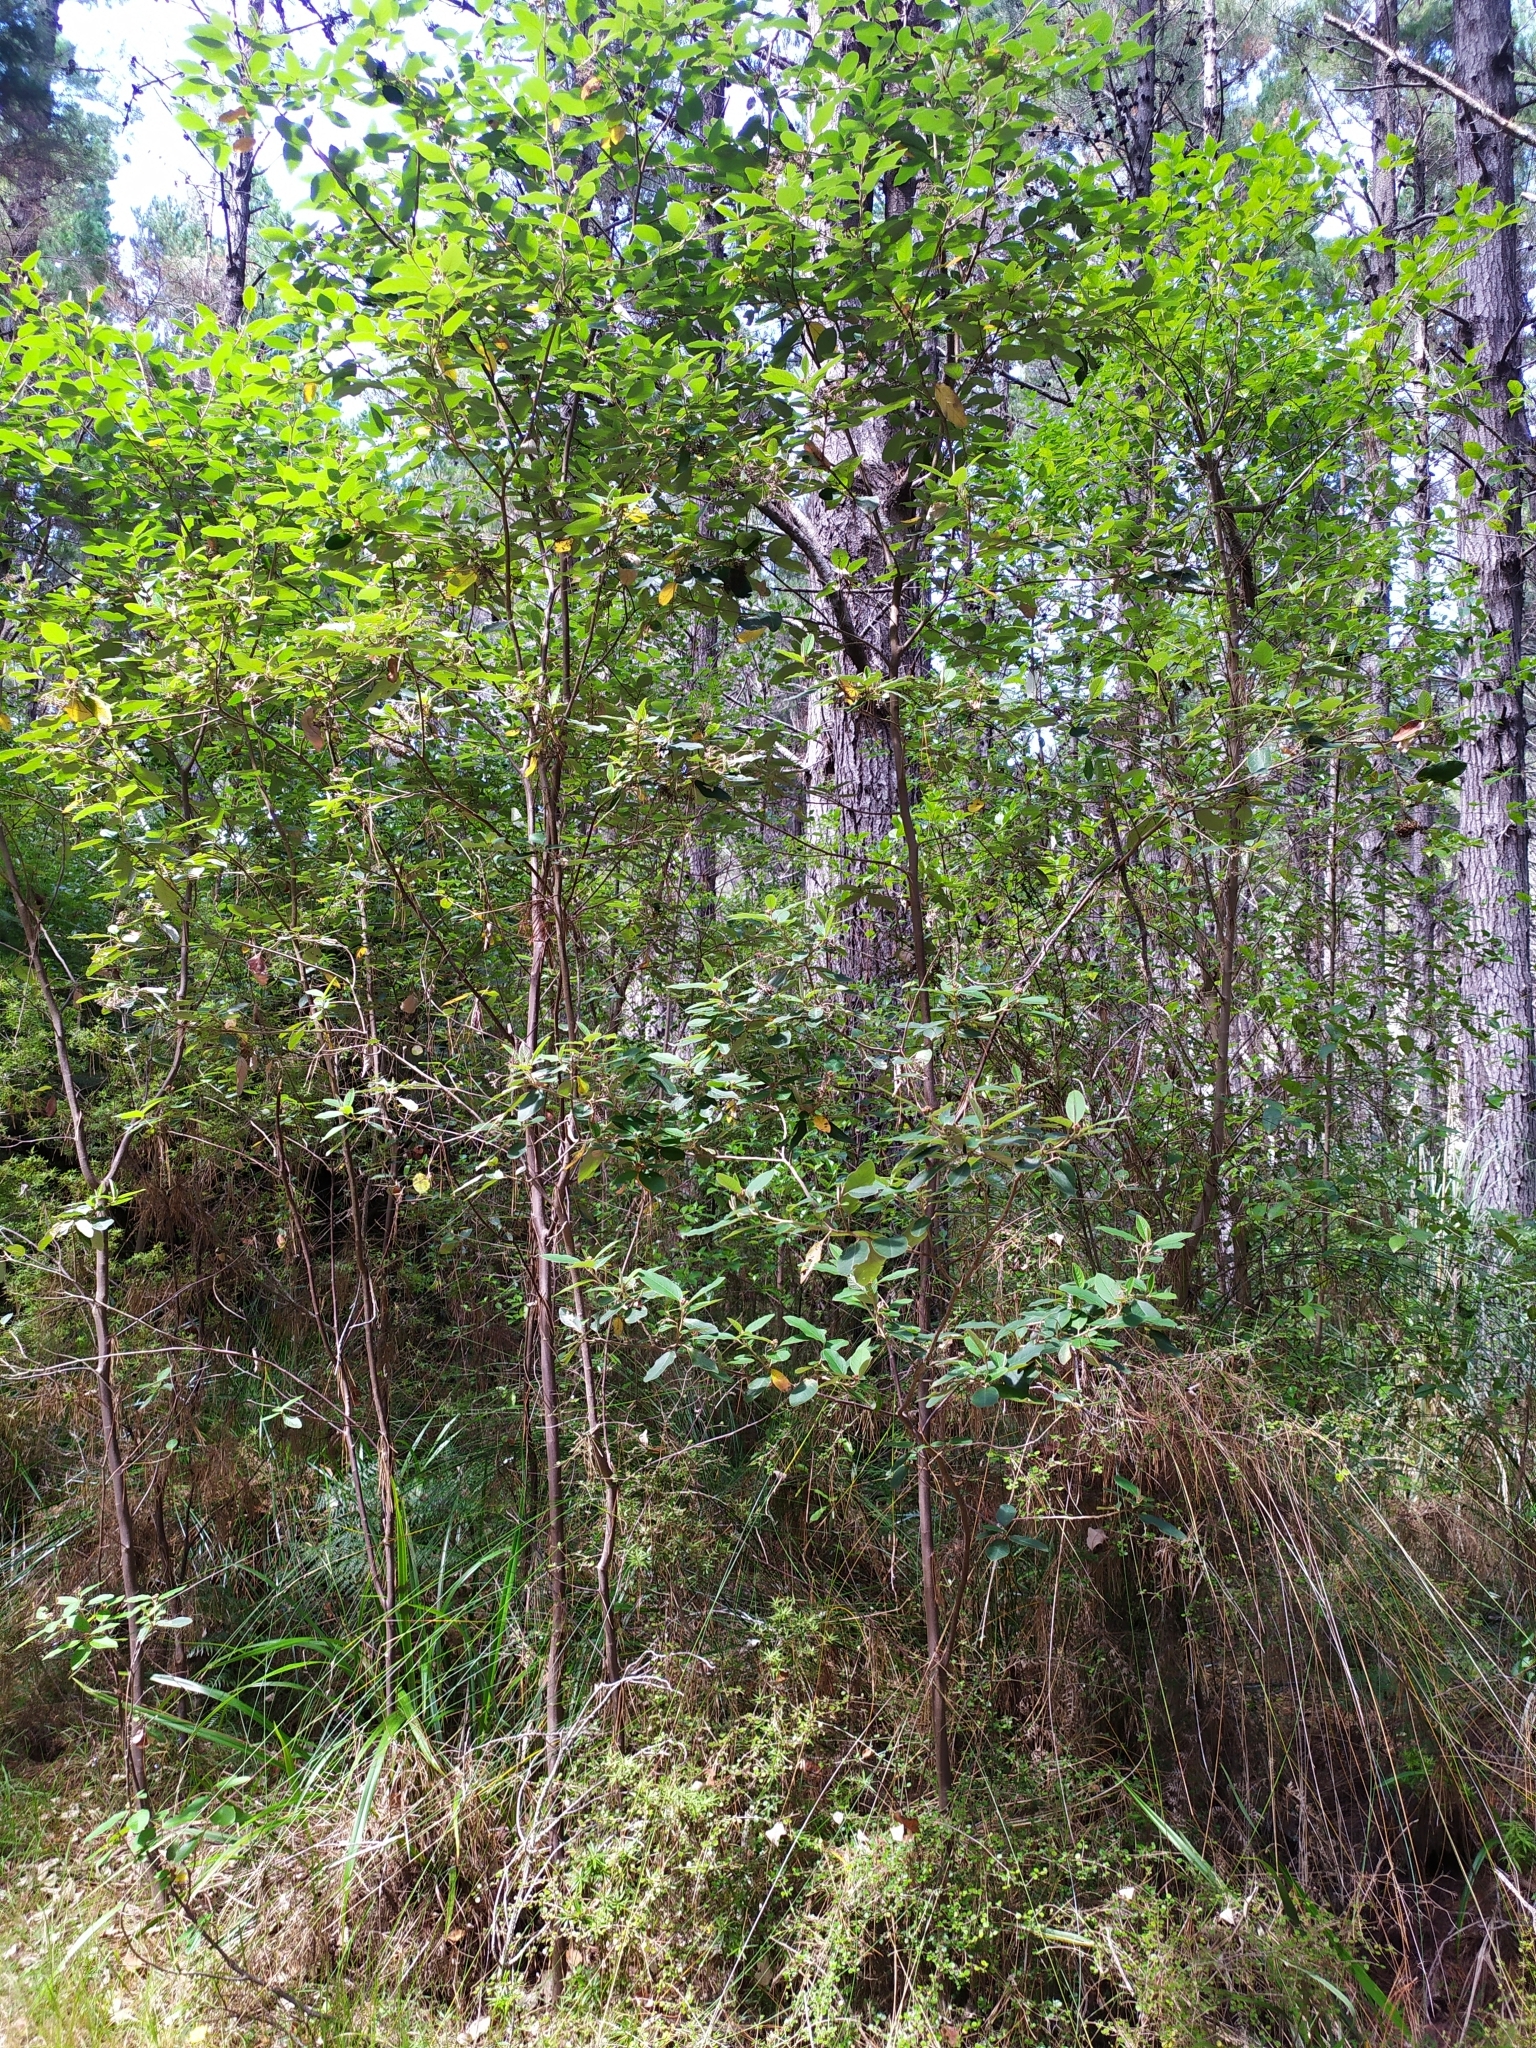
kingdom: Plantae
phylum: Tracheophyta
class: Magnoliopsida
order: Rosales
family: Rhamnaceae
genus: Pomaderris
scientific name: Pomaderris kumeraho
